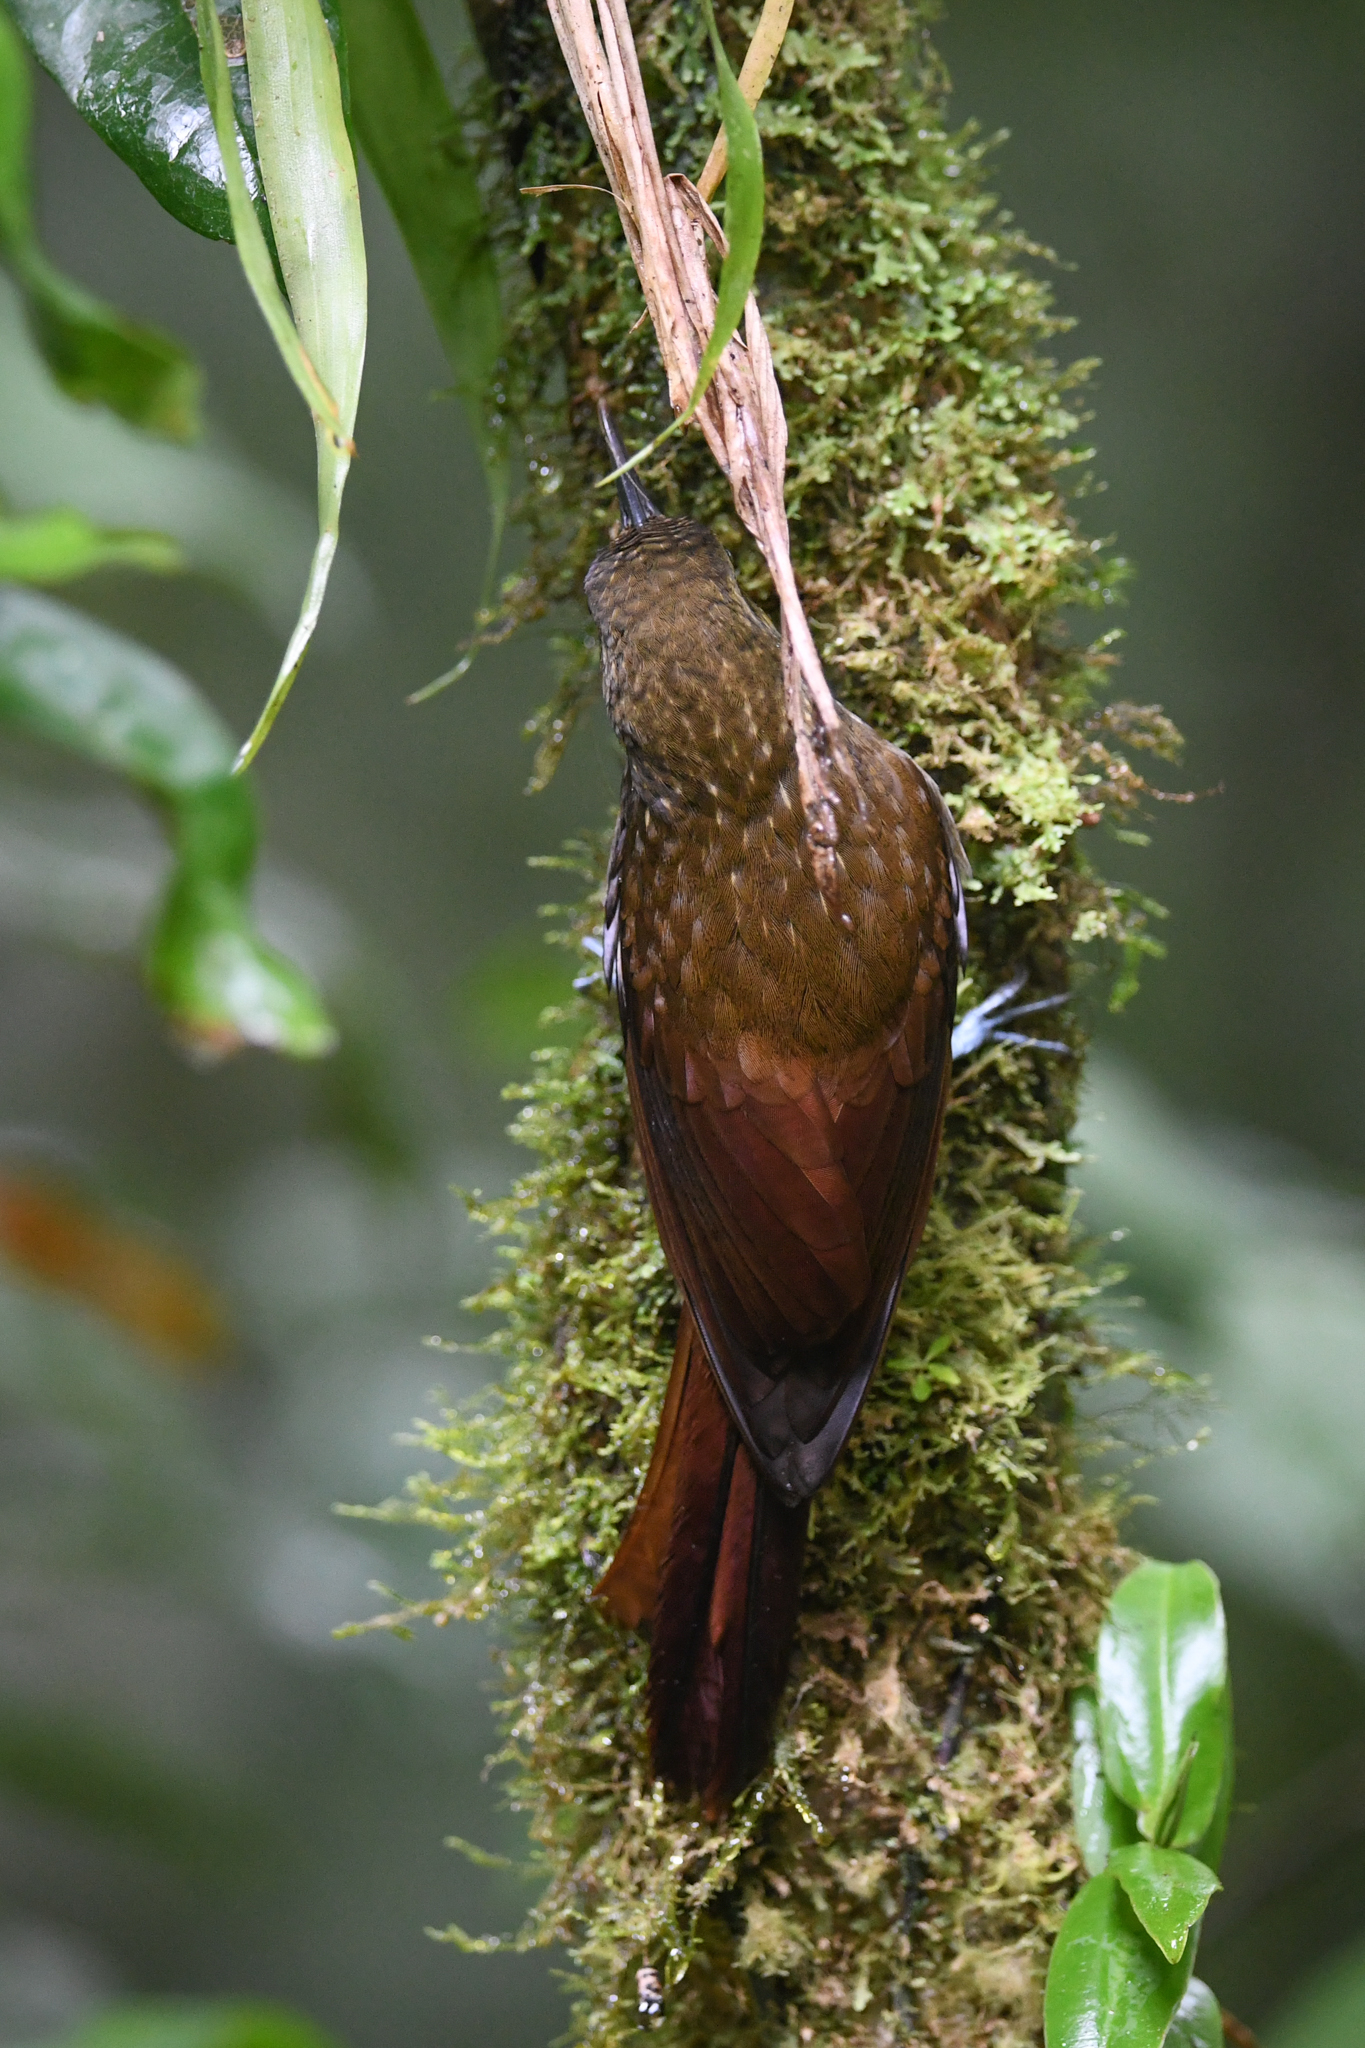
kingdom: Animalia
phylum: Chordata
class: Aves
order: Passeriformes
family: Furnariidae
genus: Xiphorhynchus
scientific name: Xiphorhynchus erythropygius
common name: Spotted woodcreeper
